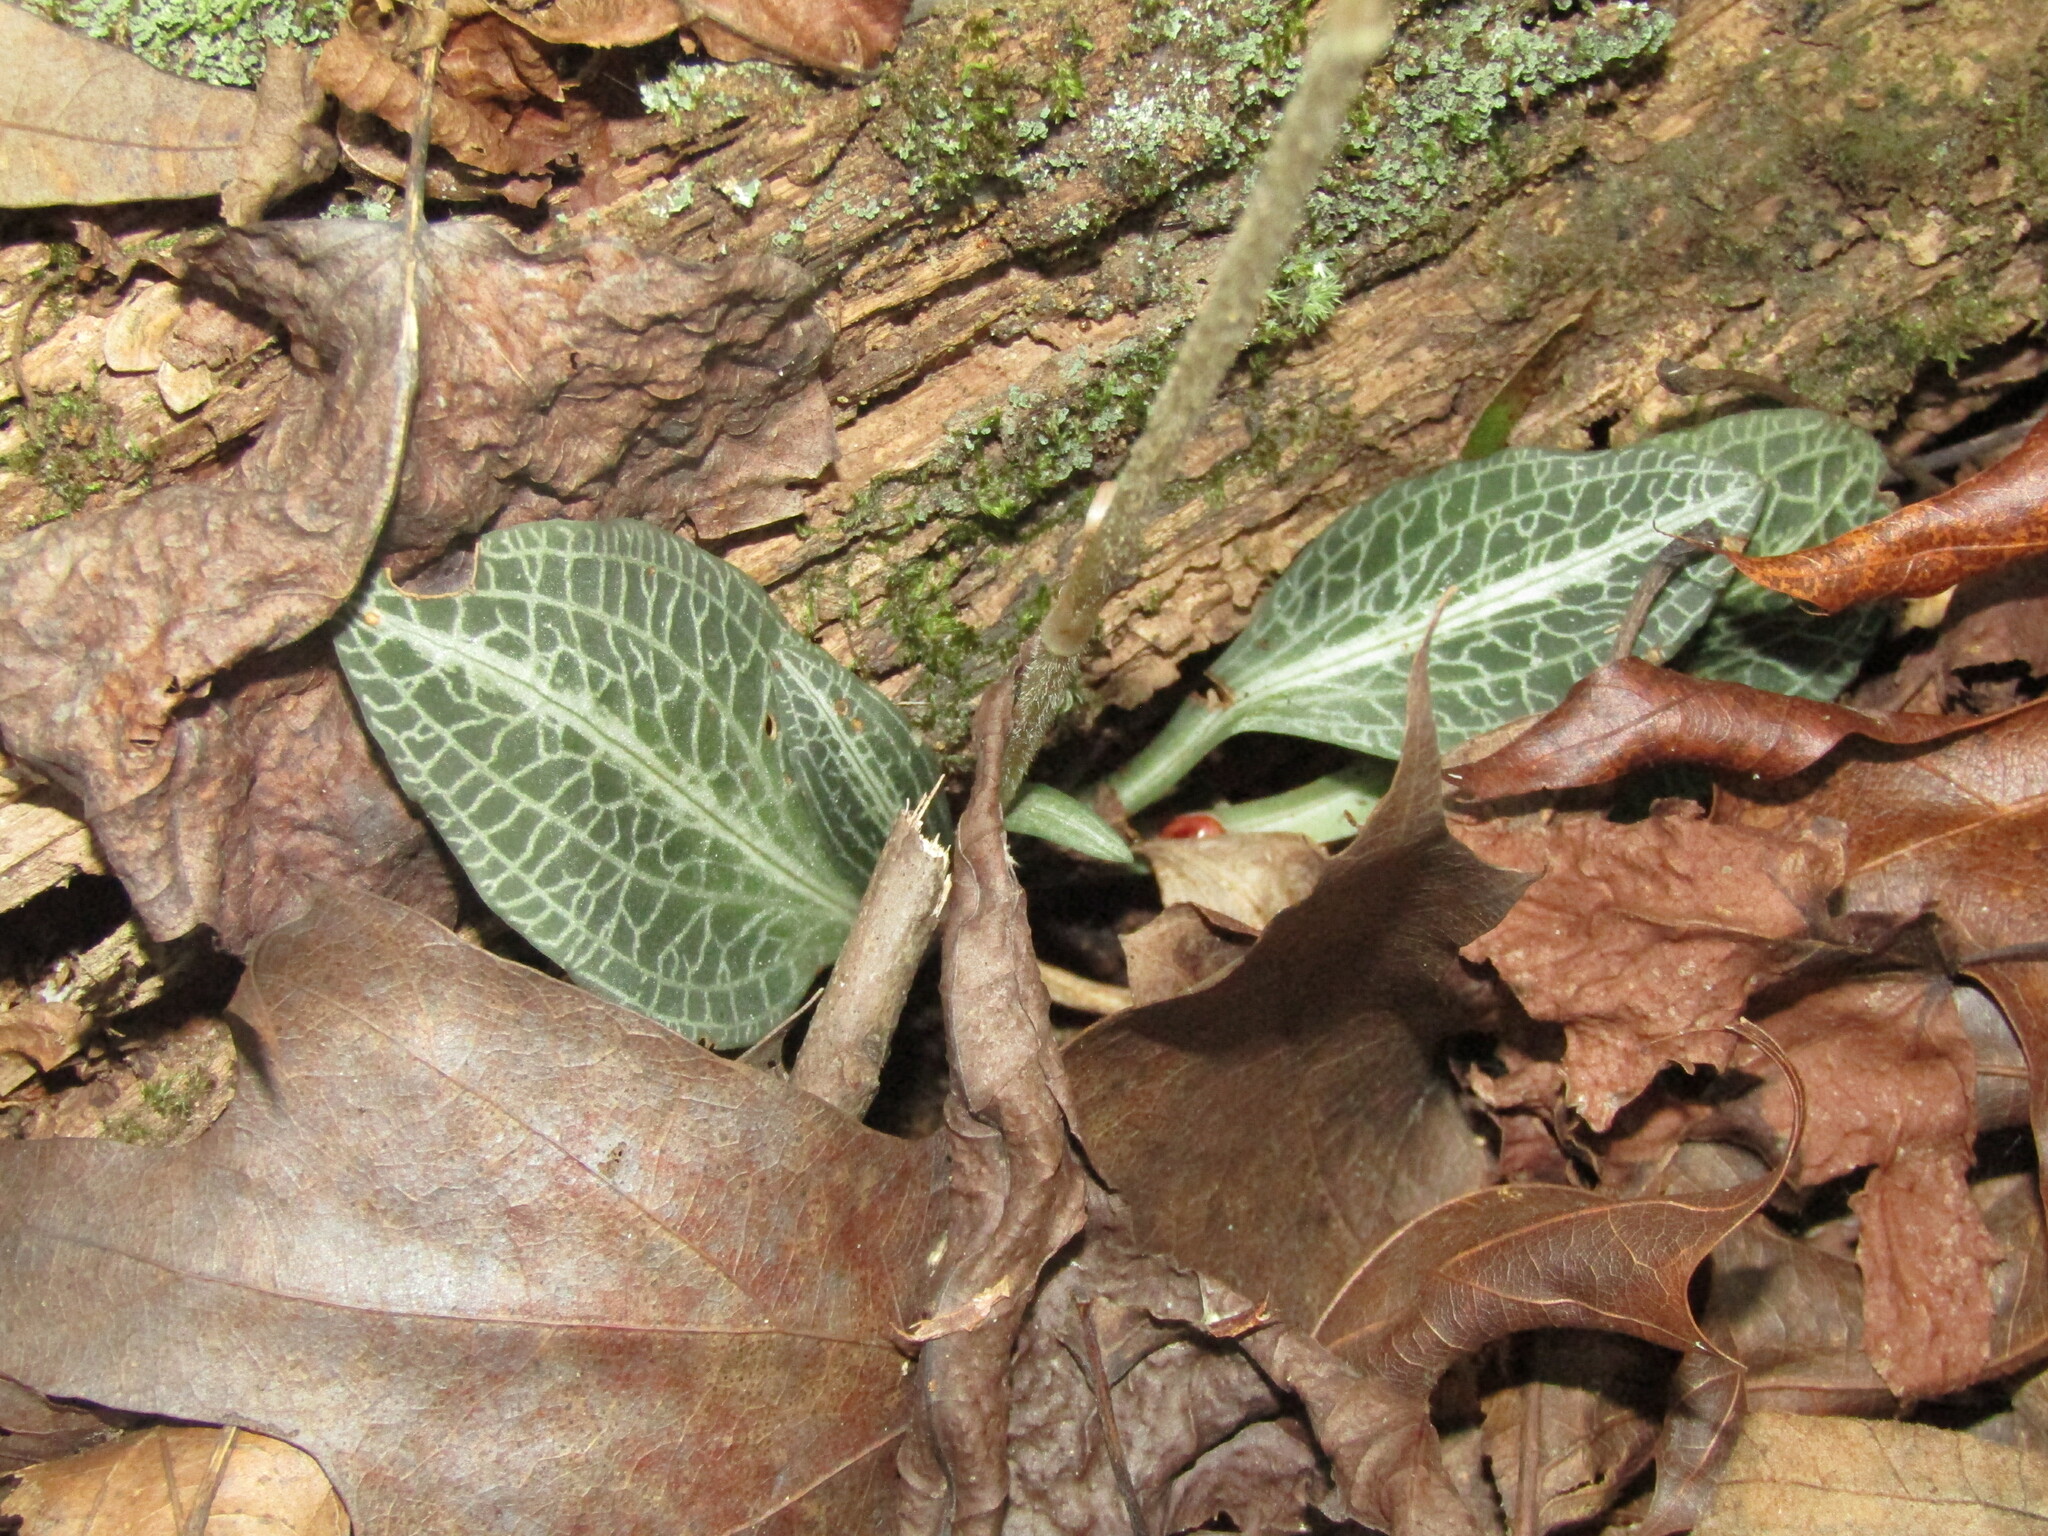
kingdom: Plantae
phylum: Tracheophyta
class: Liliopsida
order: Asparagales
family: Orchidaceae
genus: Goodyera
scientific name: Goodyera pubescens
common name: Downy rattlesnake-plantain
